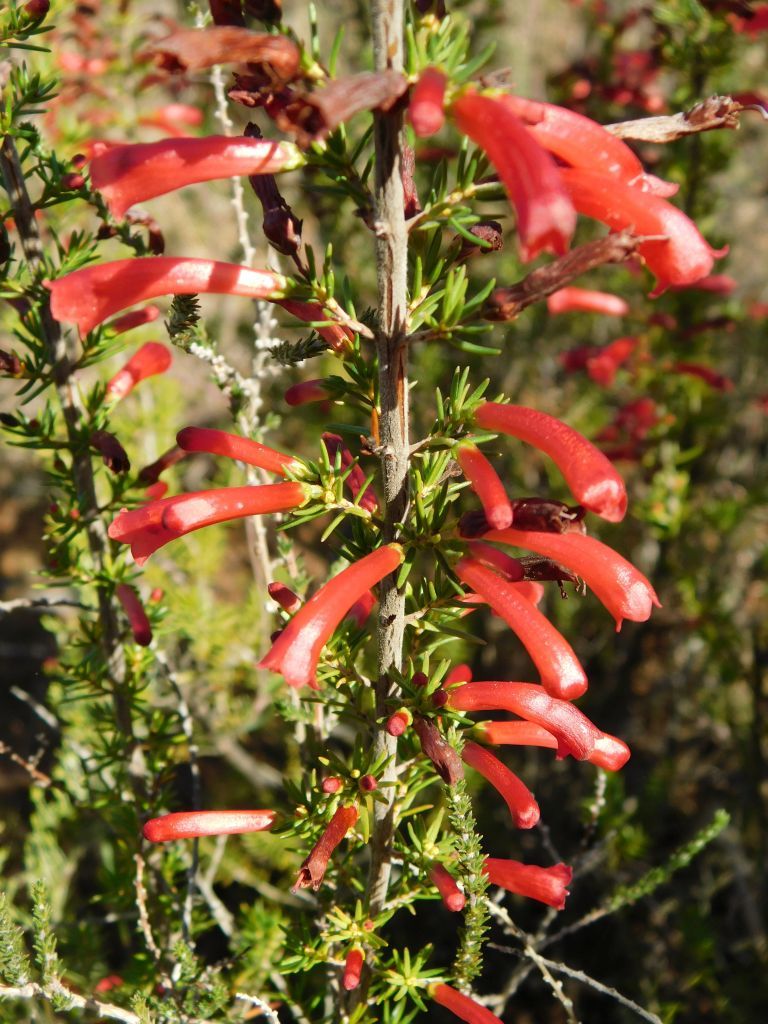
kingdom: Plantae
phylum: Tracheophyta
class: Magnoliopsida
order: Ericales
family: Ericaceae
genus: Erica
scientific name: Erica cruenta
